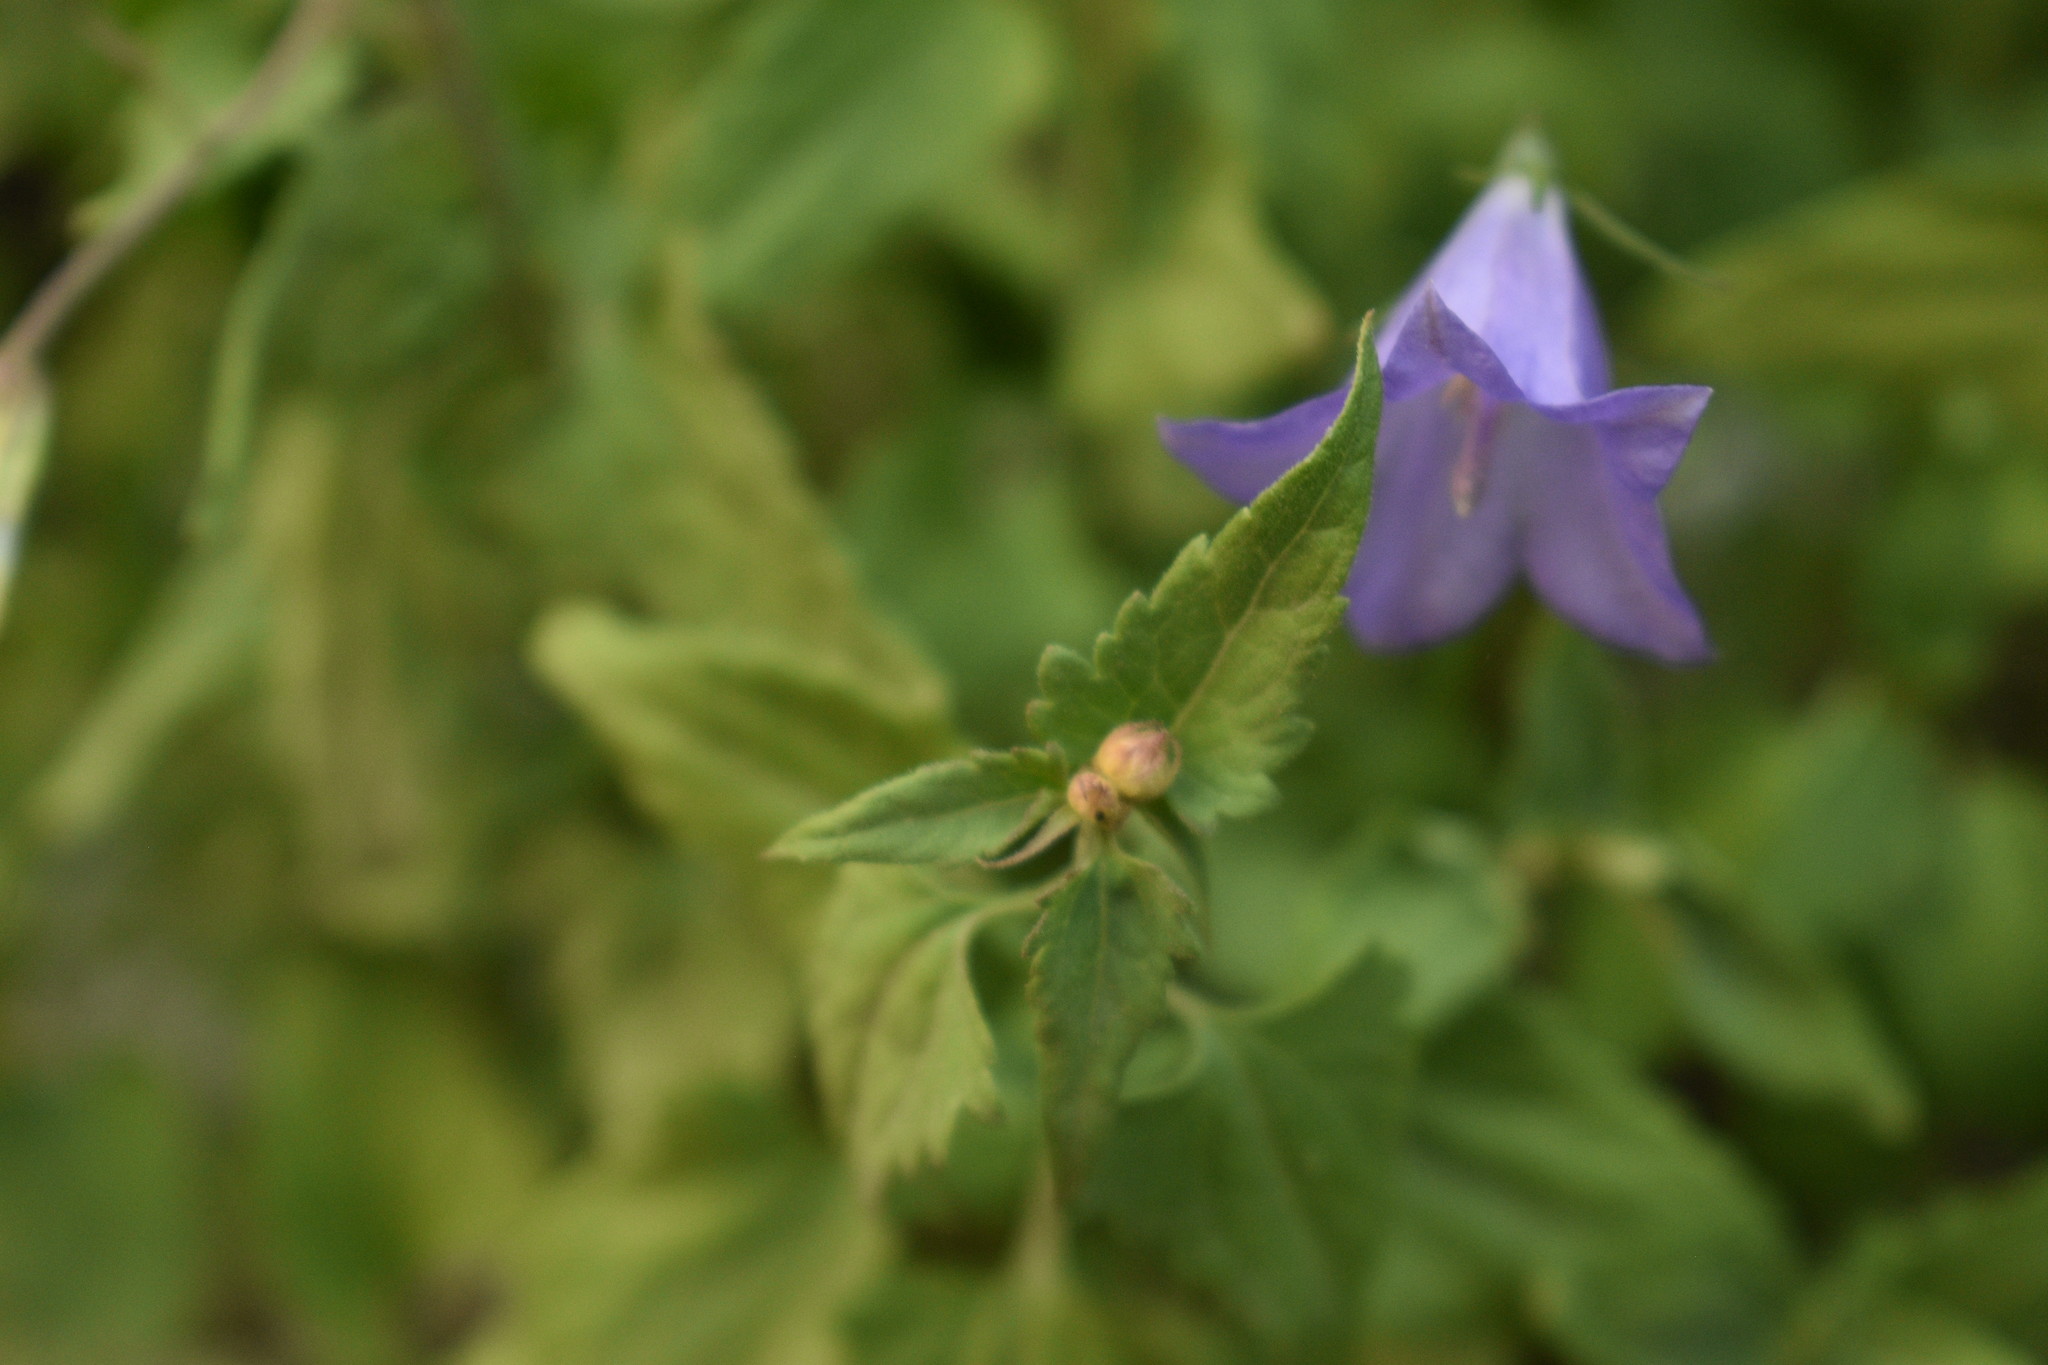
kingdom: Plantae
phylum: Tracheophyta
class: Magnoliopsida
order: Asterales
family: Campanulaceae
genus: Campanula
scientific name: Campanula petiolata
